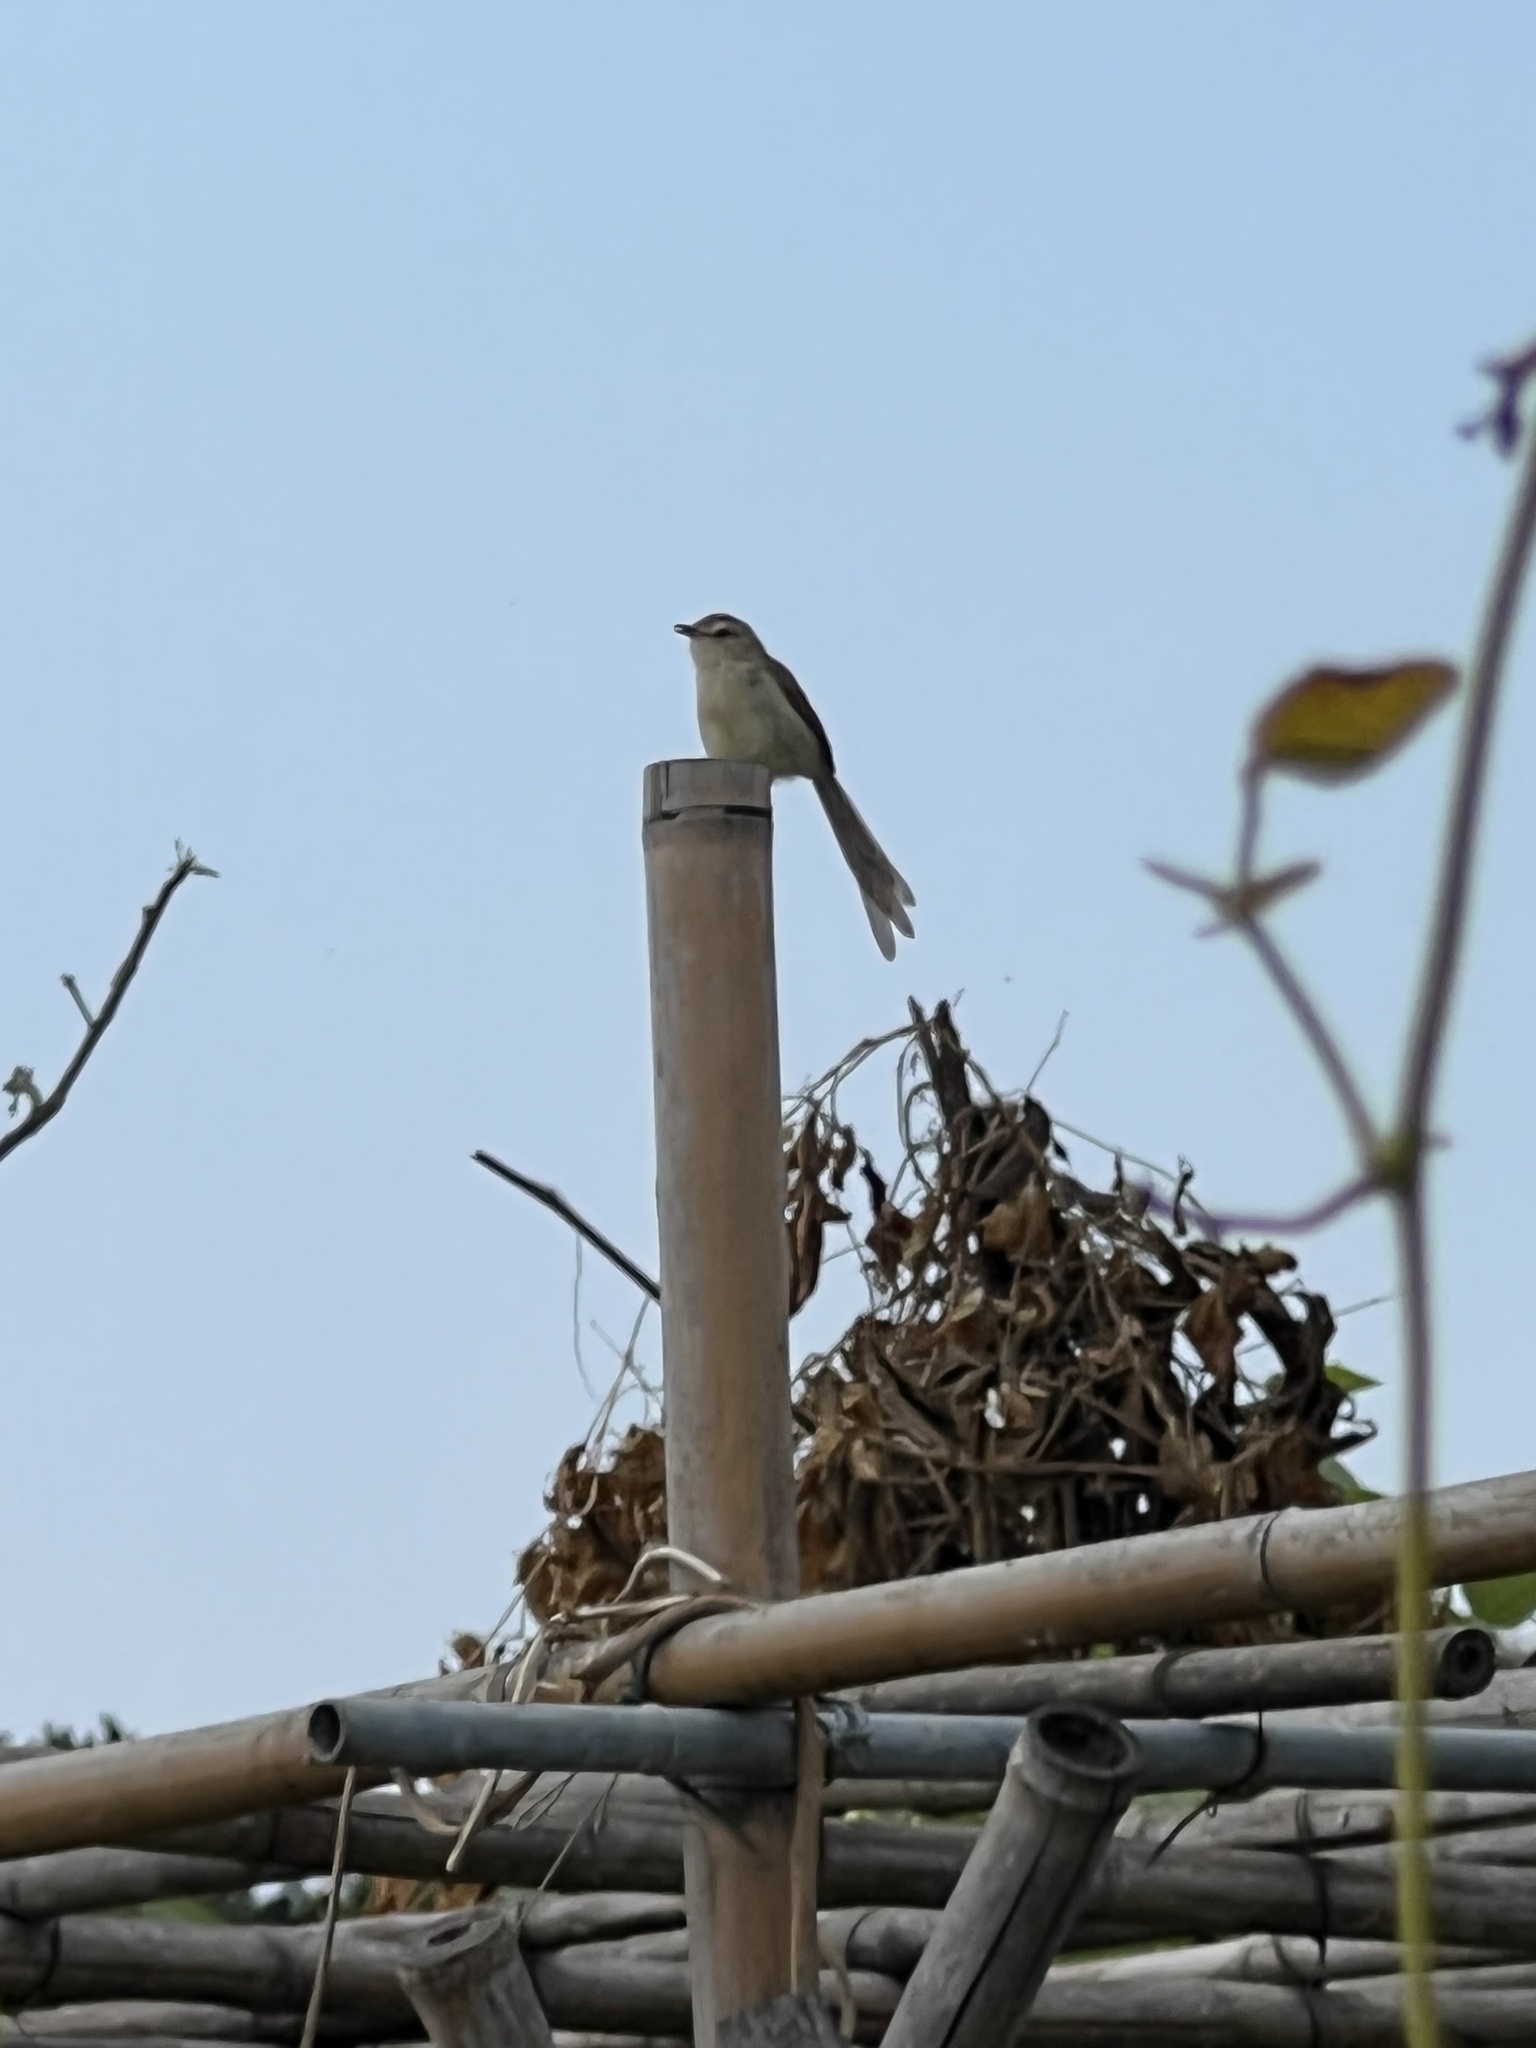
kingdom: Animalia
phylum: Chordata
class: Aves
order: Passeriformes
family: Cisticolidae
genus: Prinia
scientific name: Prinia inornata
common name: Plain prinia
